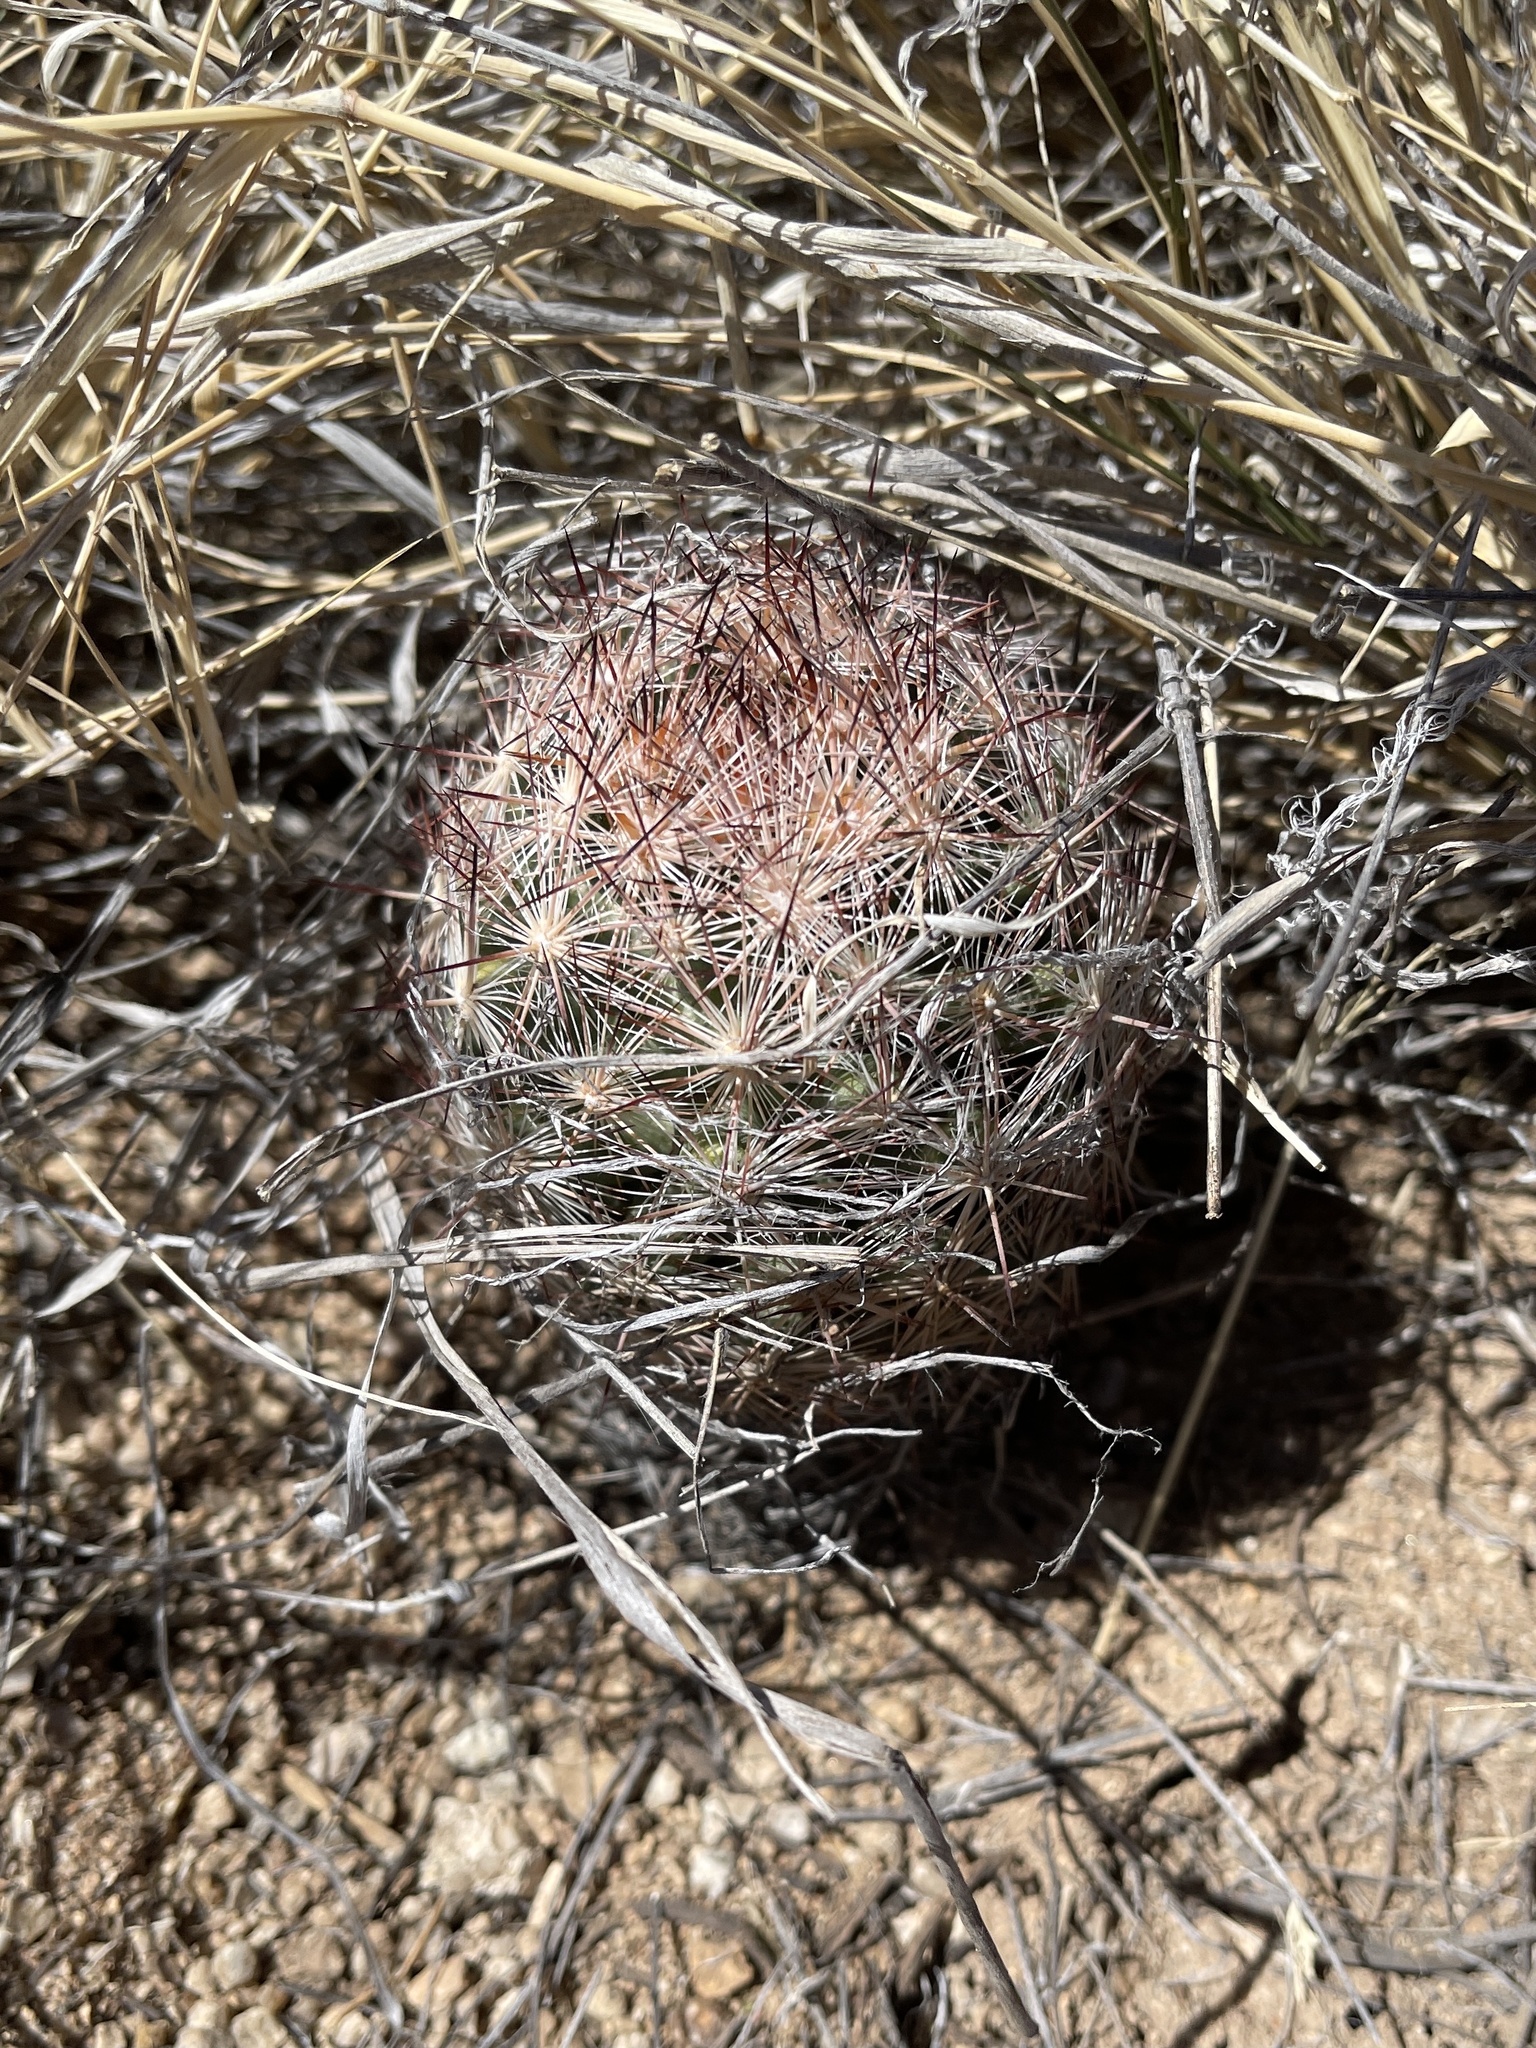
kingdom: Plantae
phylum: Tracheophyta
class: Magnoliopsida
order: Caryophyllales
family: Cactaceae
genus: Pelecyphora
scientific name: Pelecyphora vivipara
